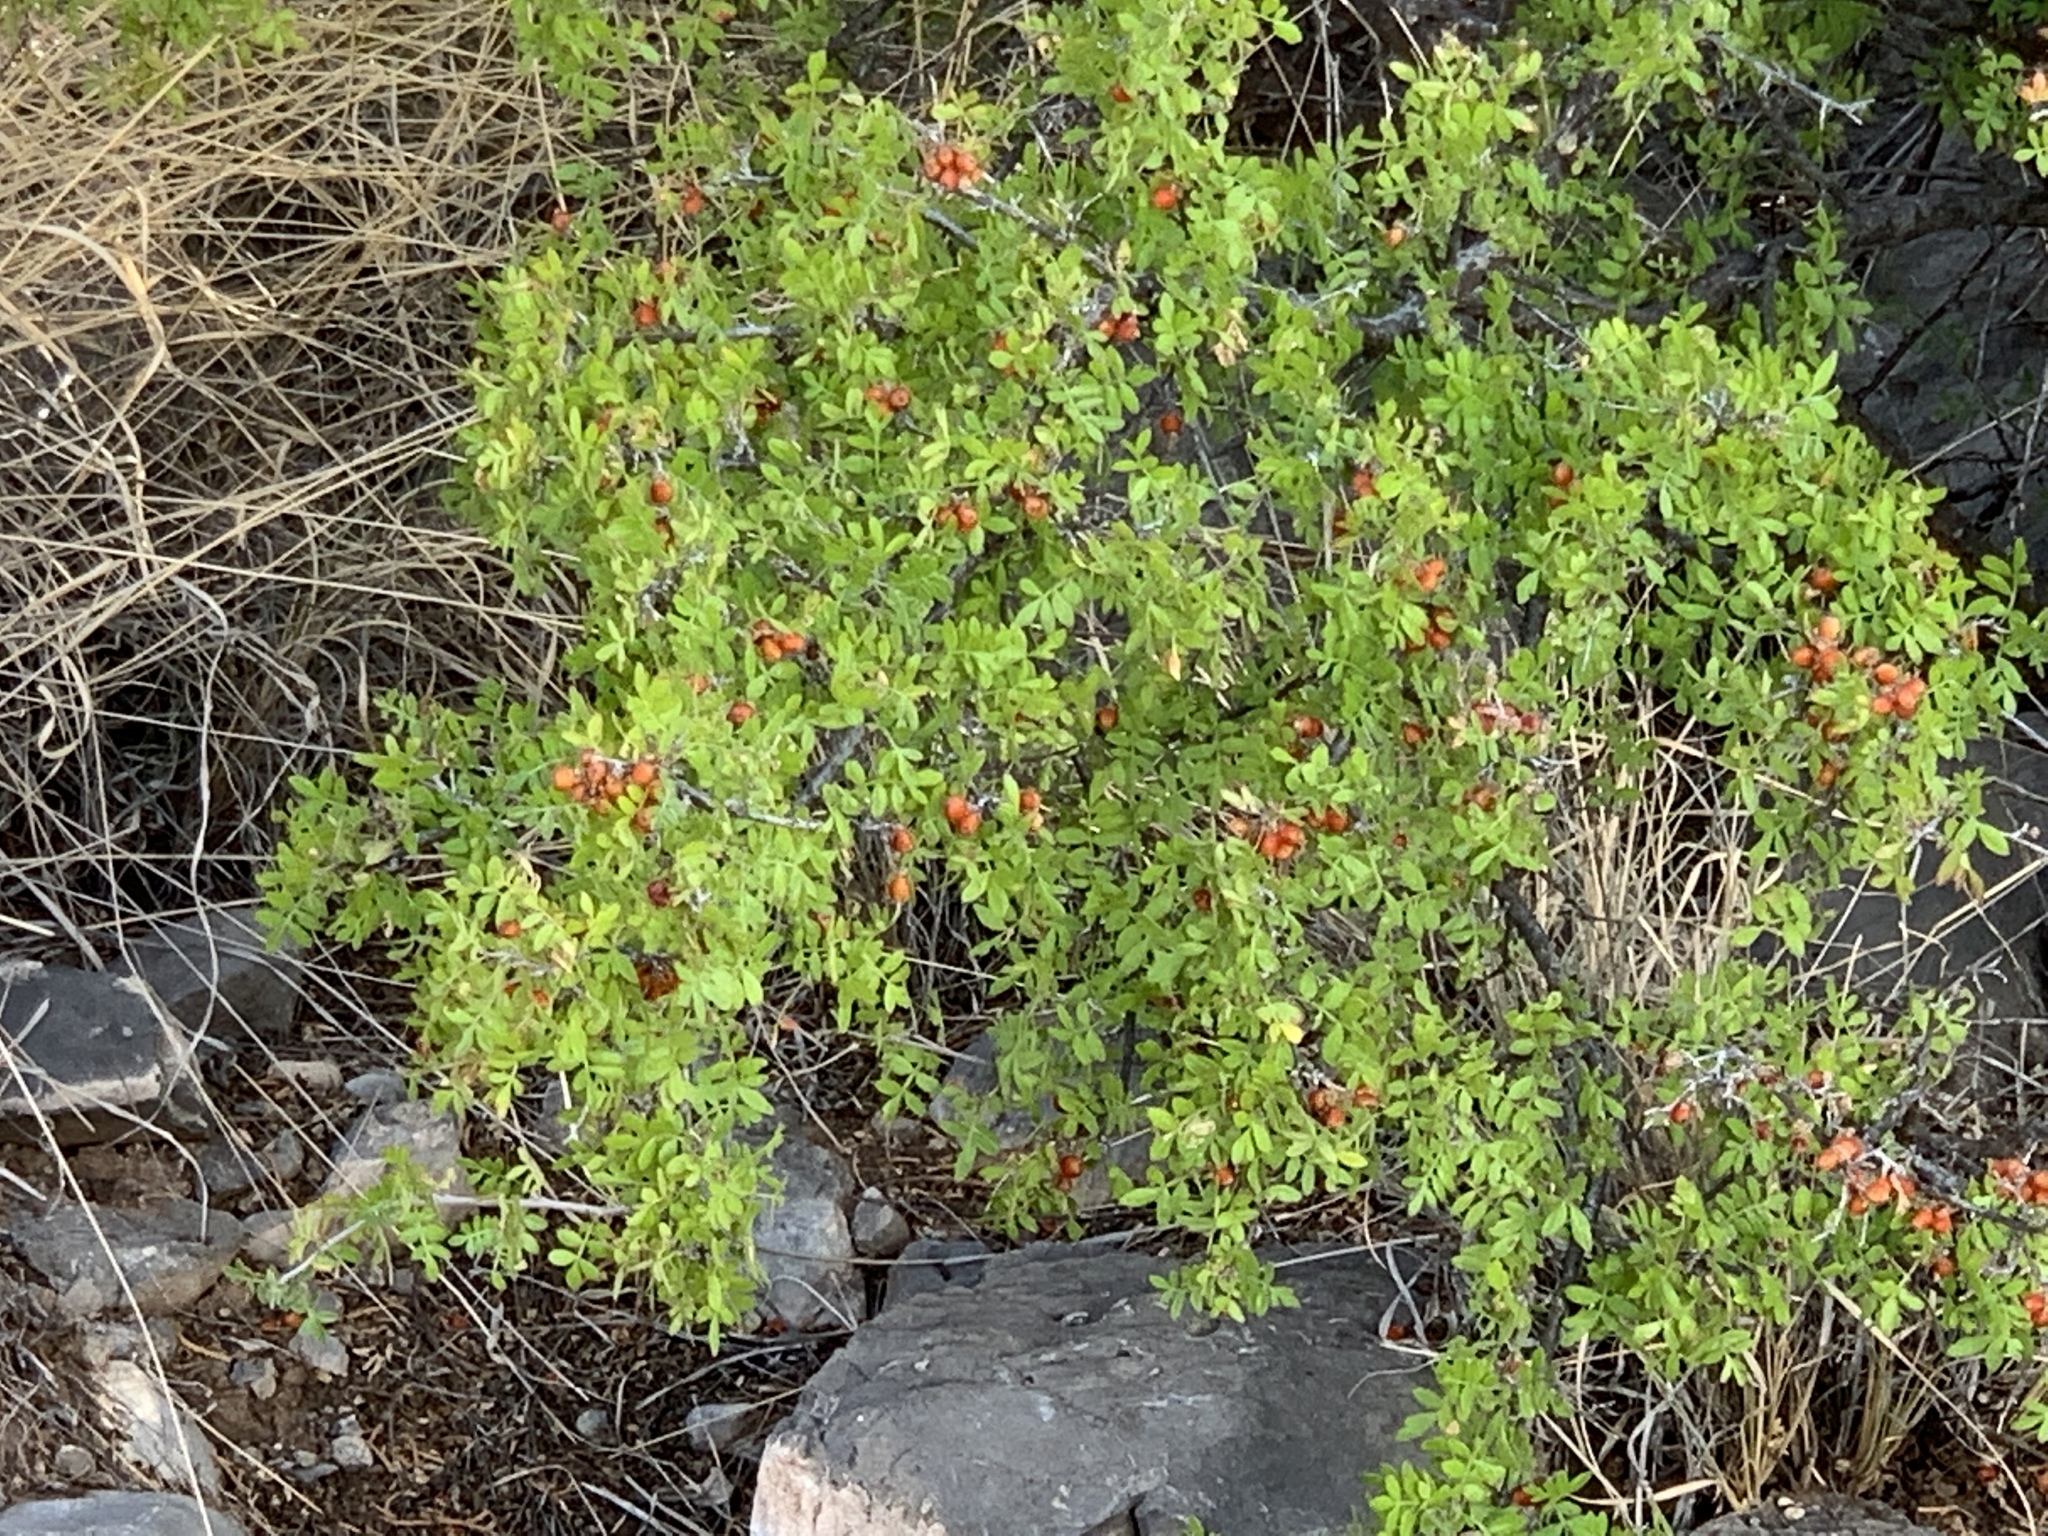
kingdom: Plantae
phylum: Tracheophyta
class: Magnoliopsida
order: Sapindales
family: Anacardiaceae
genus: Rhus
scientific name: Rhus microphylla
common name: Desert sumac
